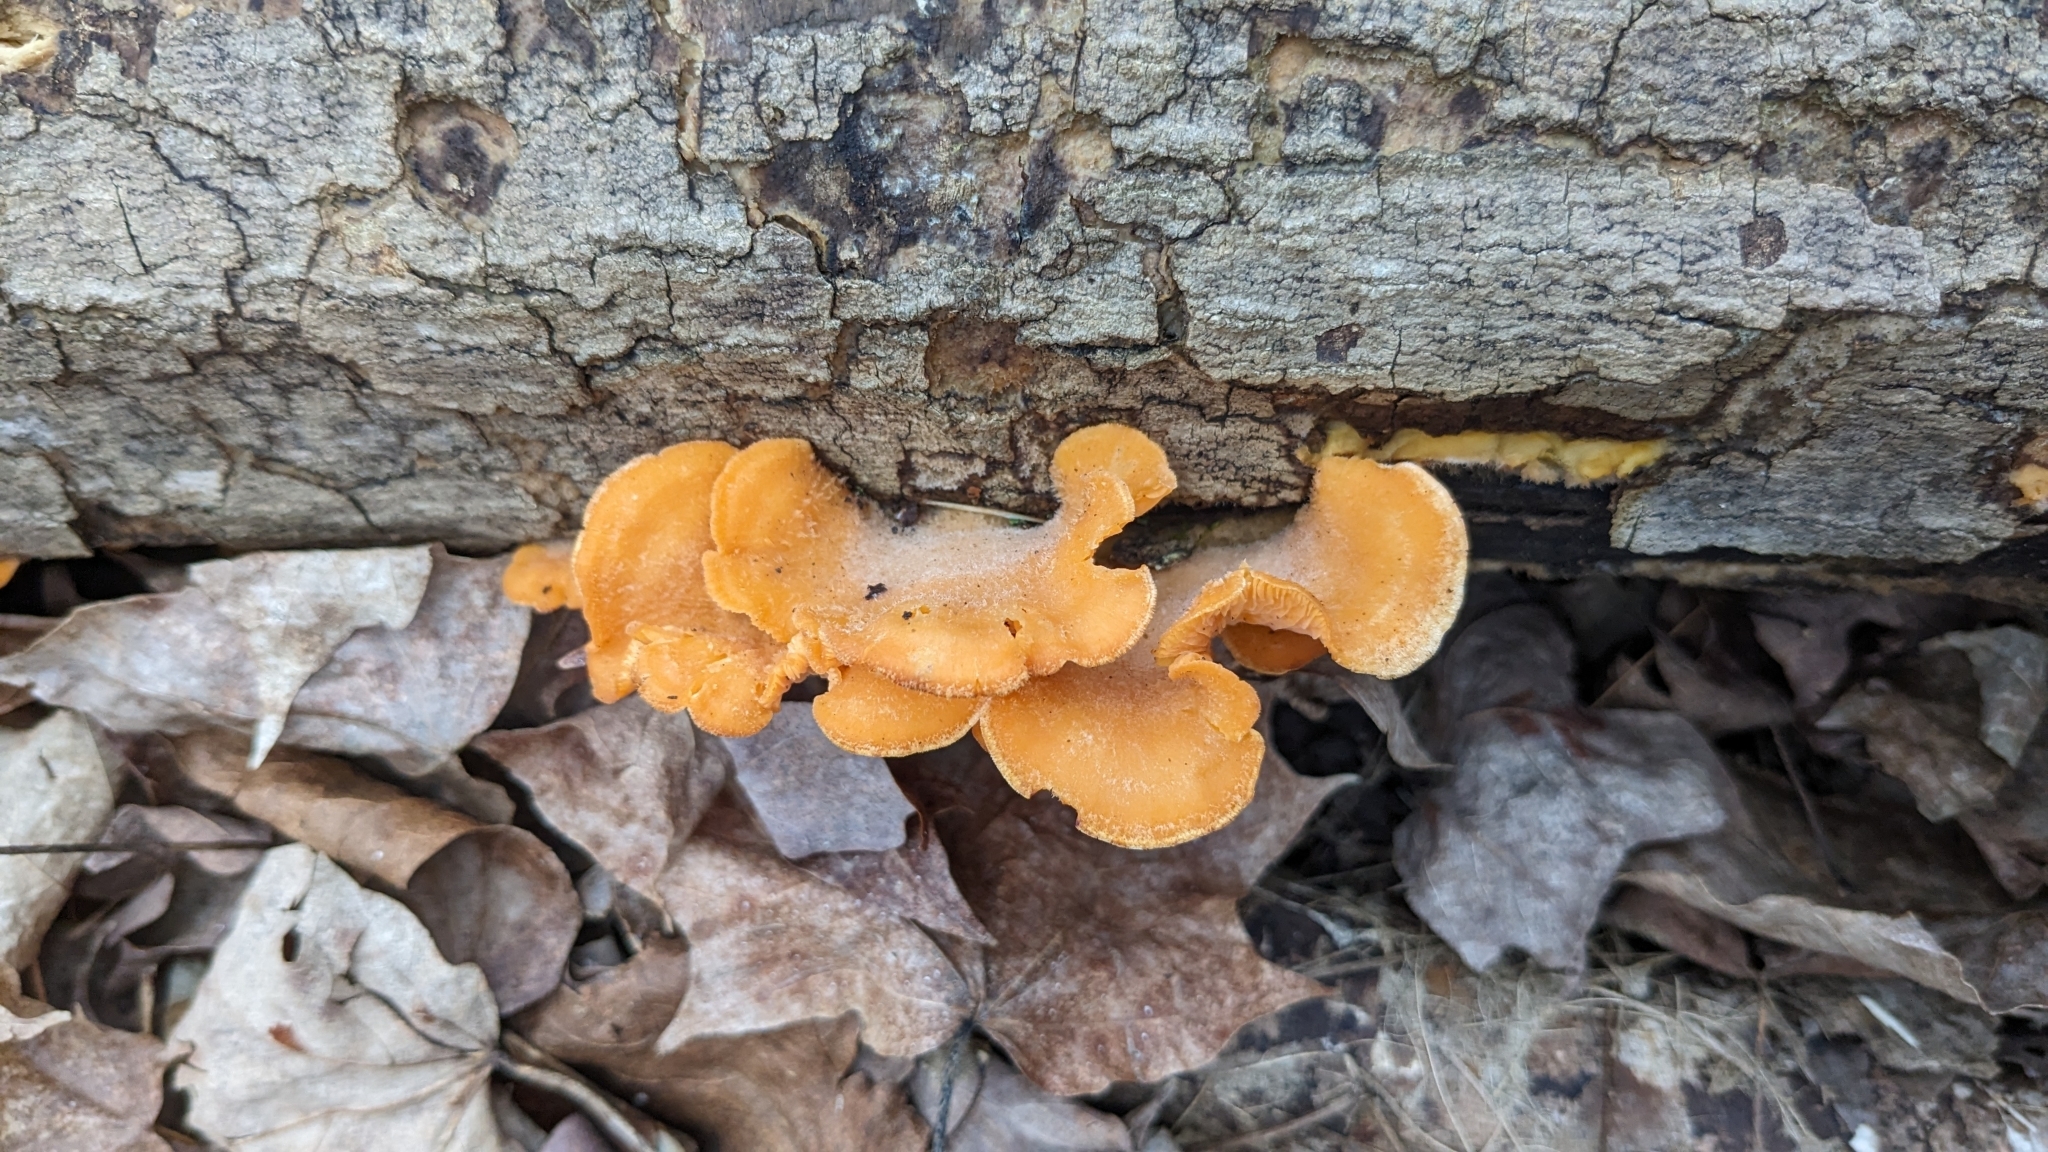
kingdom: Fungi
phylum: Basidiomycota
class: Agaricomycetes
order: Agaricales
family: Phyllotopsidaceae
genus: Phyllotopsis
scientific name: Phyllotopsis nidulans
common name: Orange mock oyster
